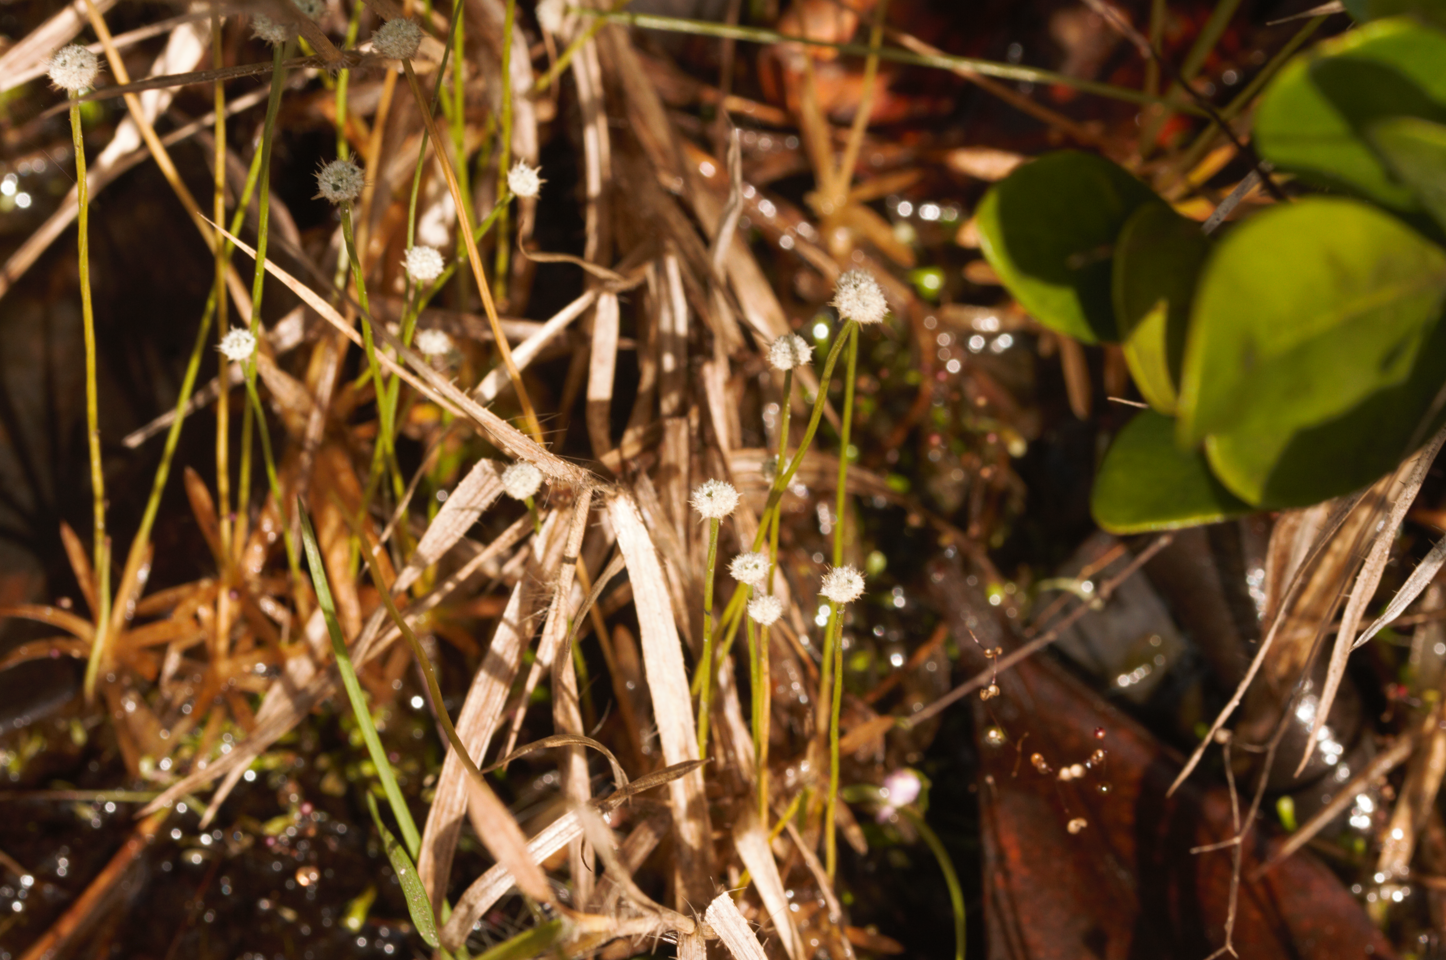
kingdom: Plantae
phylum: Tracheophyta
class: Liliopsida
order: Poales
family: Eriocaulaceae
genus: Paepalanthus
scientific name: Paepalanthus oyapockensis
